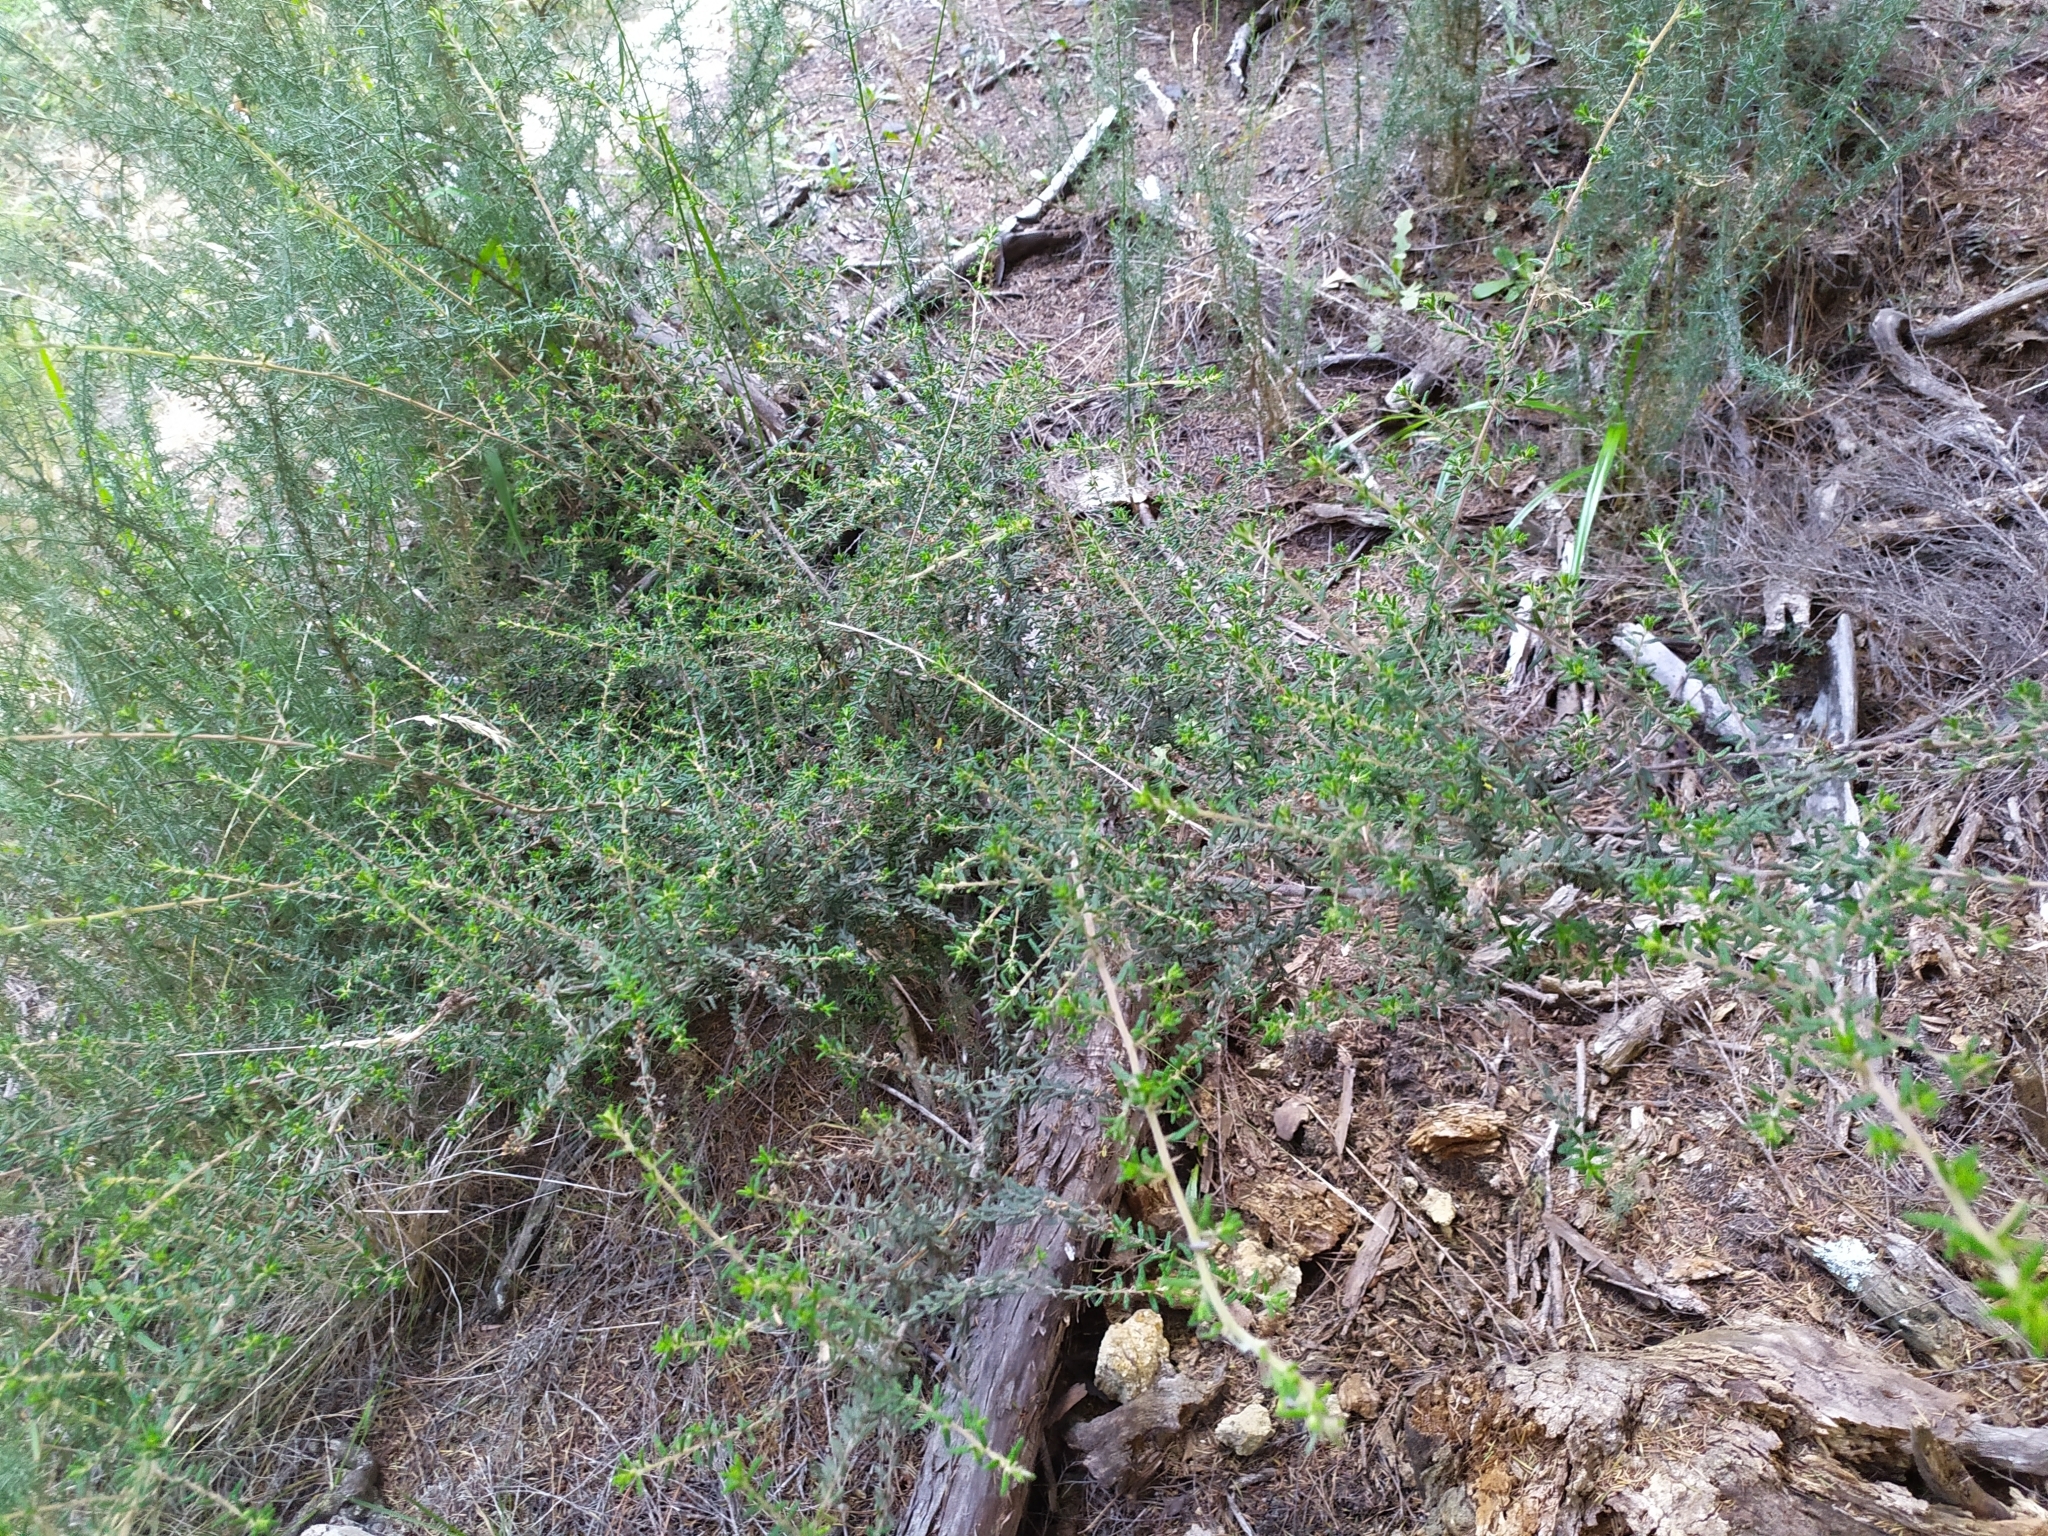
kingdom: Plantae
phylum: Tracheophyta
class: Magnoliopsida
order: Rosales
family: Rhamnaceae
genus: Pomaderris
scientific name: Pomaderris amoena
